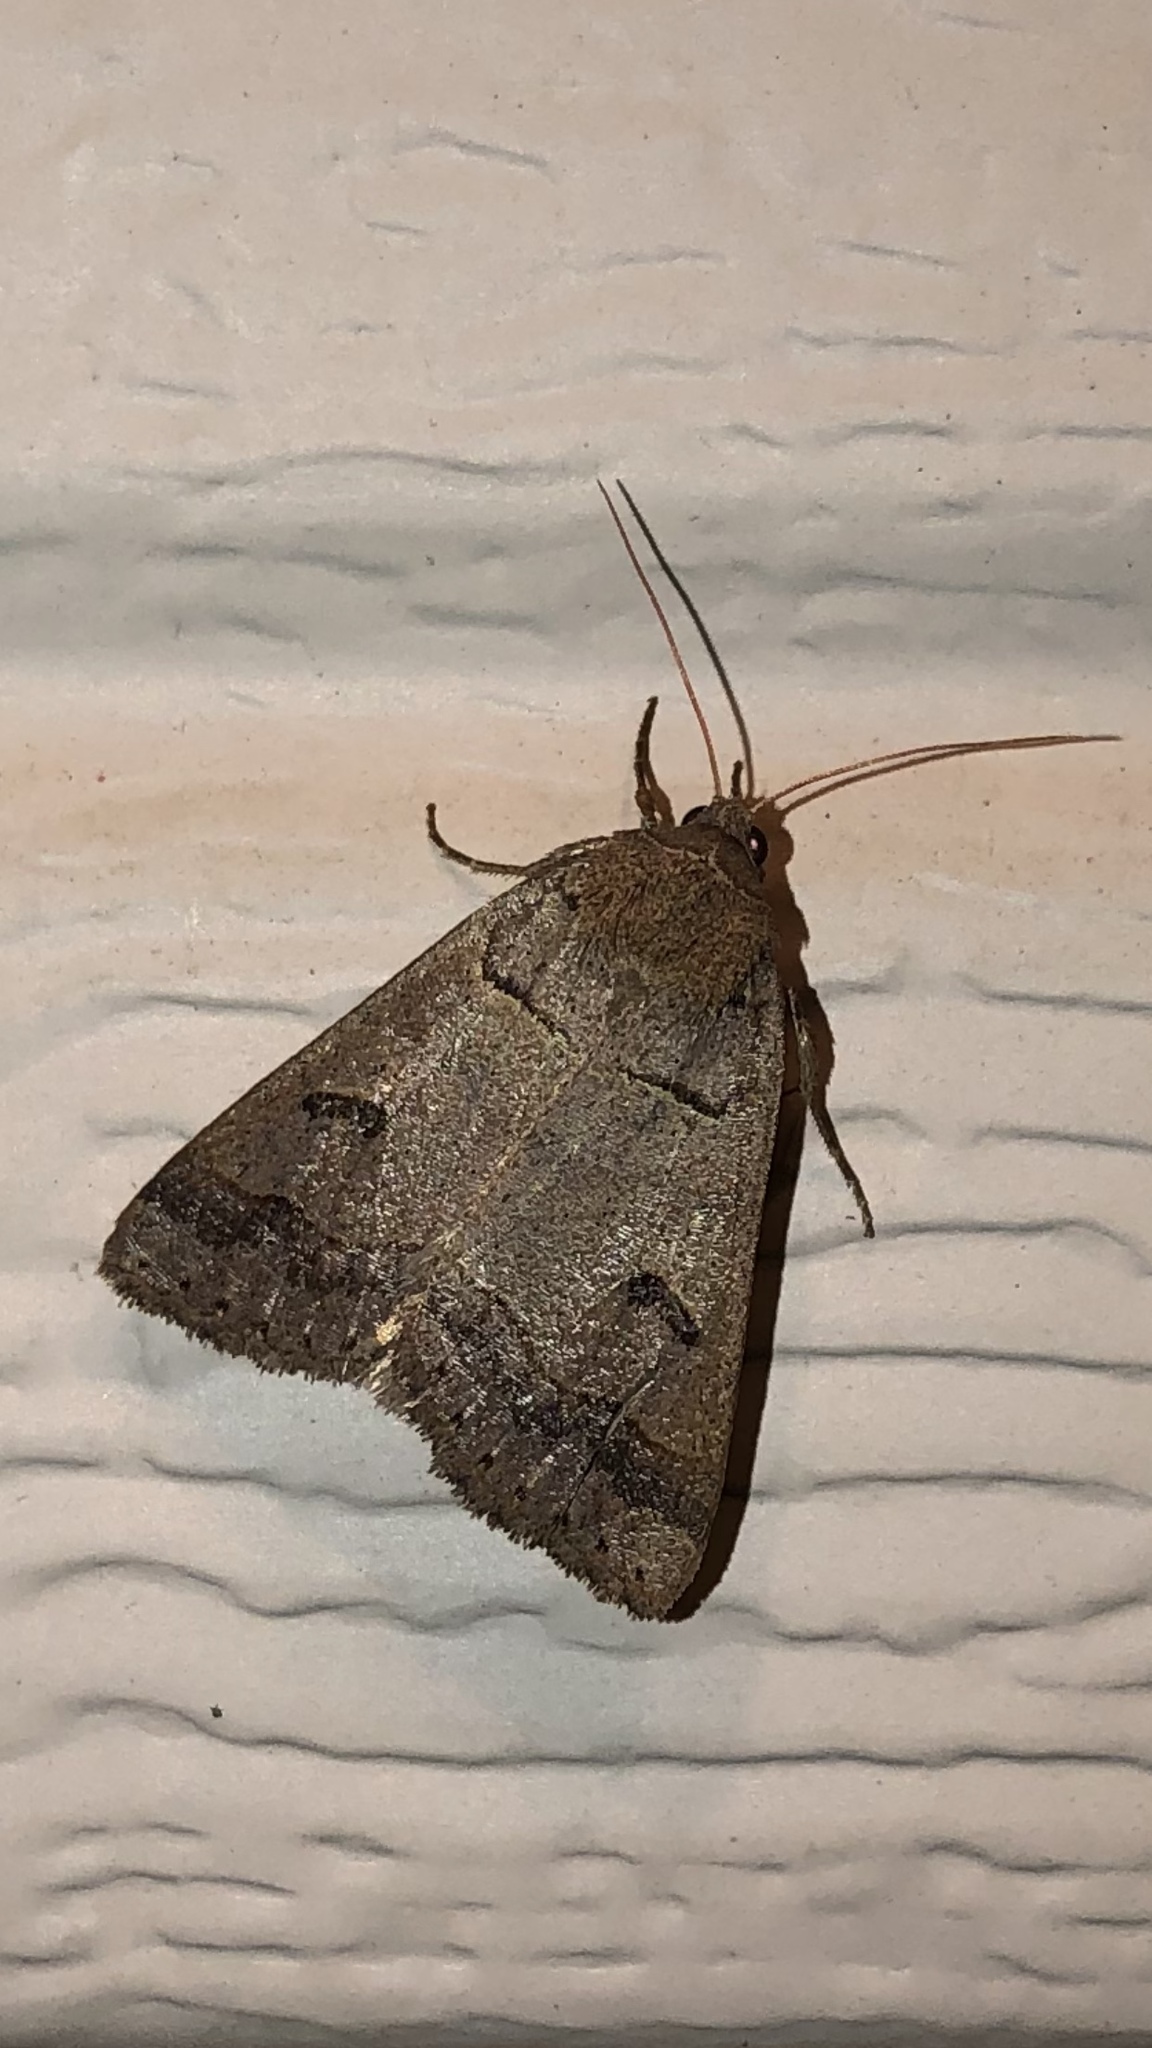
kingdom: Animalia
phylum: Arthropoda
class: Insecta
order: Lepidoptera
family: Erebidae
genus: Phoberia
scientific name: Phoberia atomaris
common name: Common oak moth
